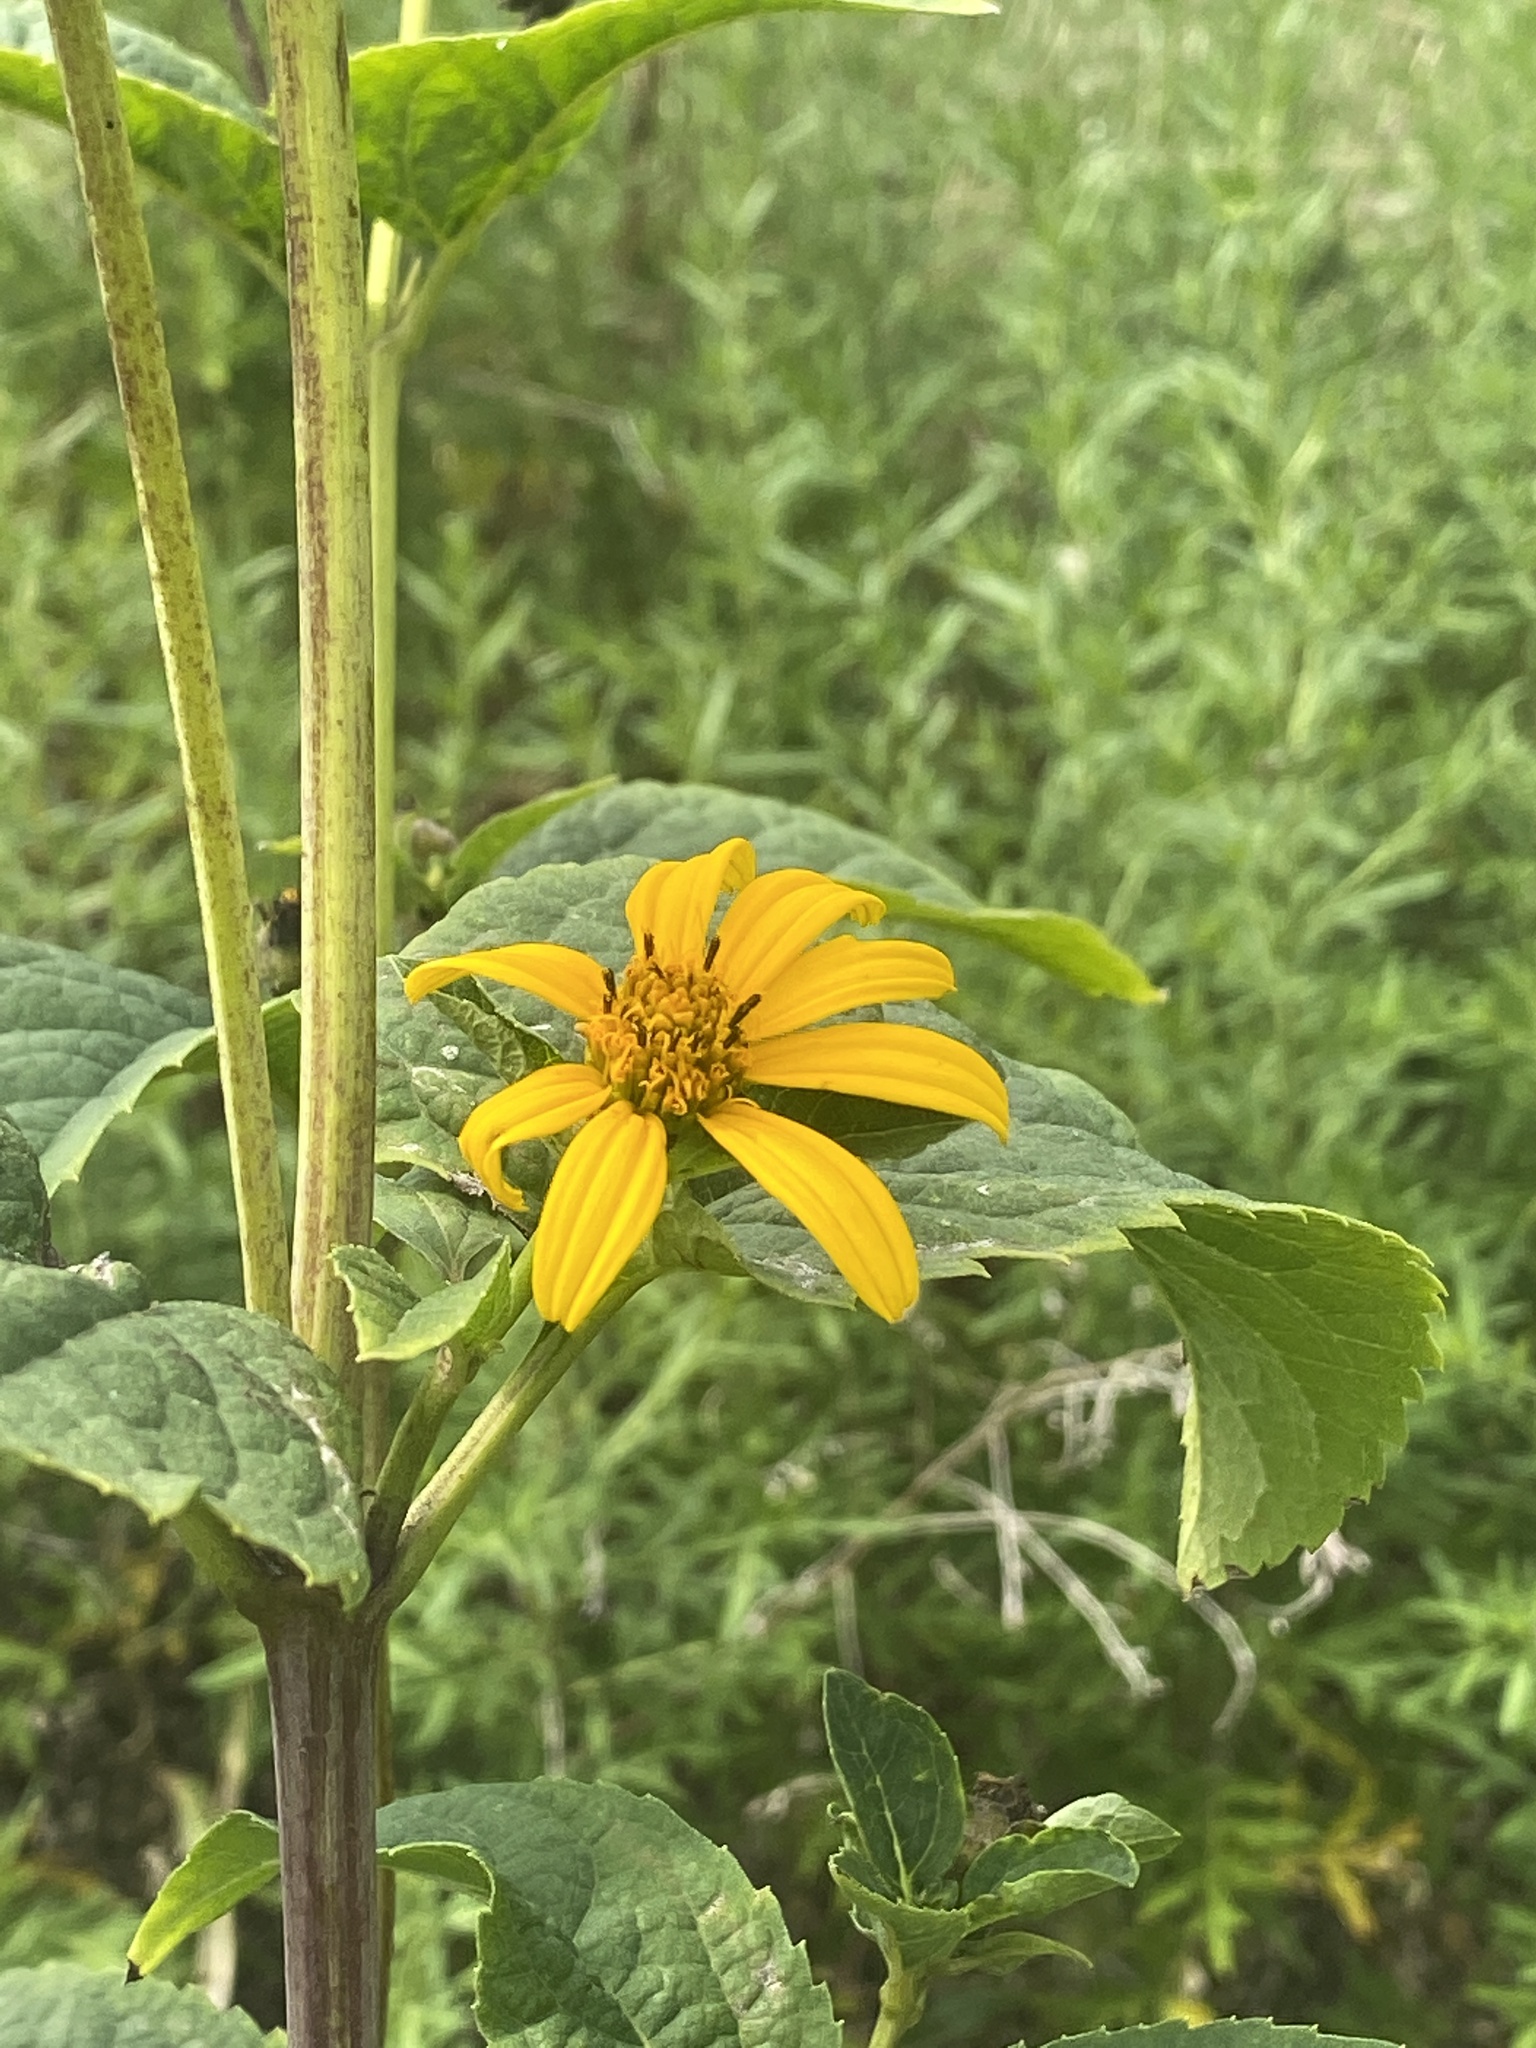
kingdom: Plantae
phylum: Tracheophyta
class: Magnoliopsida
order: Asterales
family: Asteraceae
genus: Heliopsis
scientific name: Heliopsis helianthoides
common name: False sunflower
